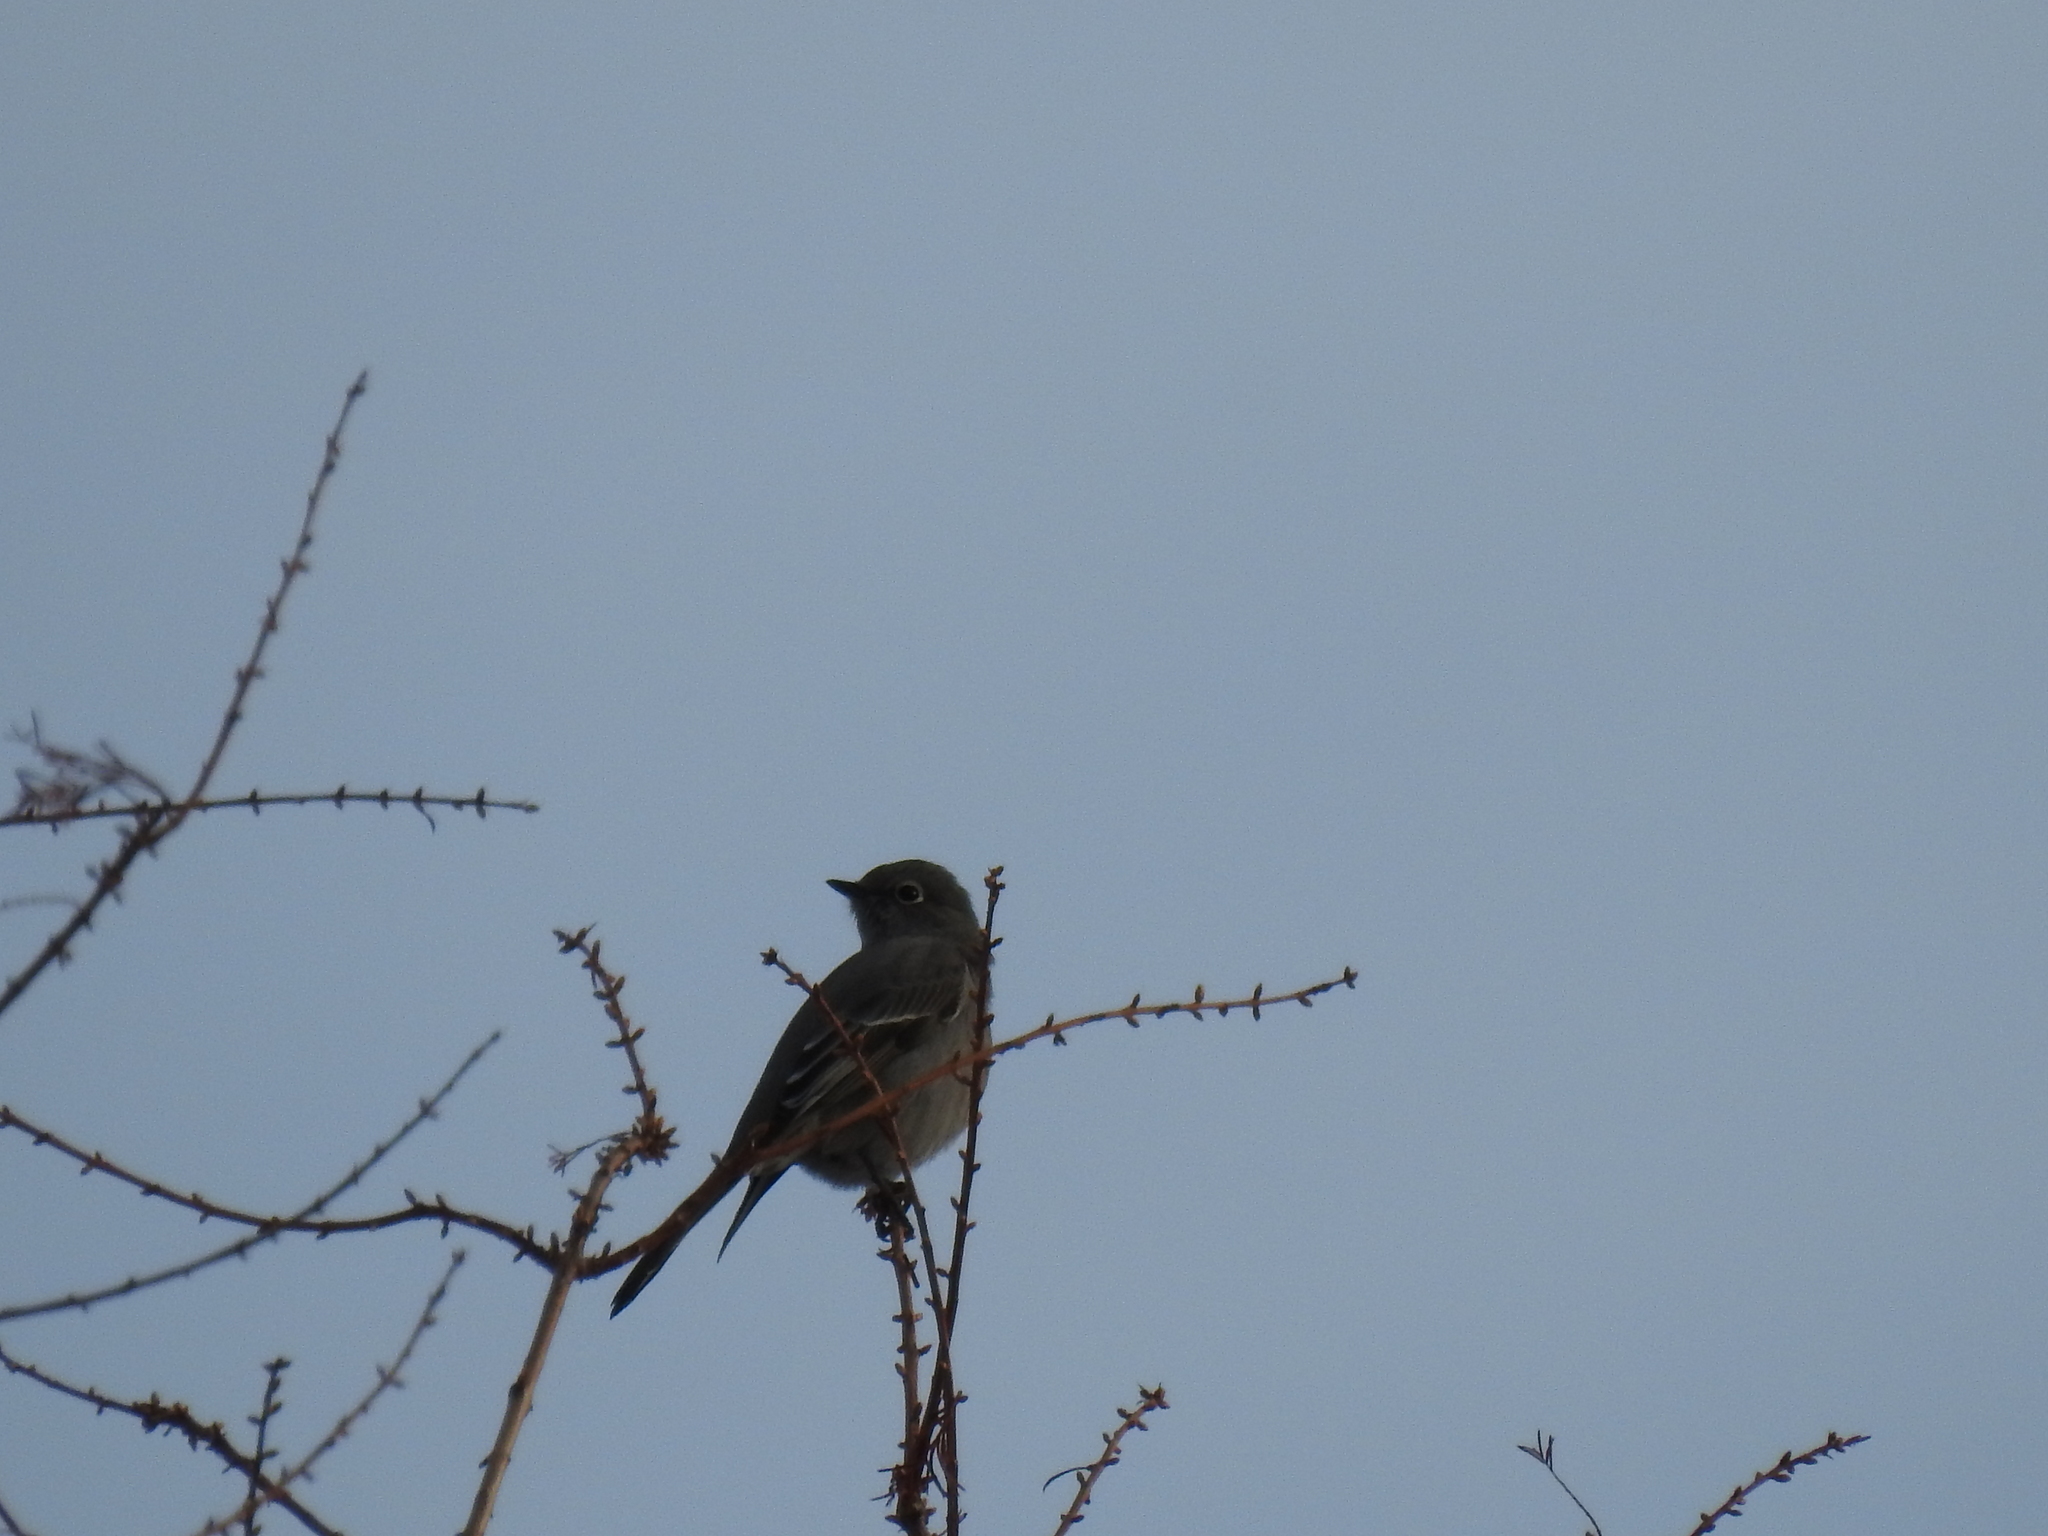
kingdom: Animalia
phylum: Chordata
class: Aves
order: Passeriformes
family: Turdidae
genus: Myadestes
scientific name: Myadestes townsendi
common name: Townsend's solitaire
